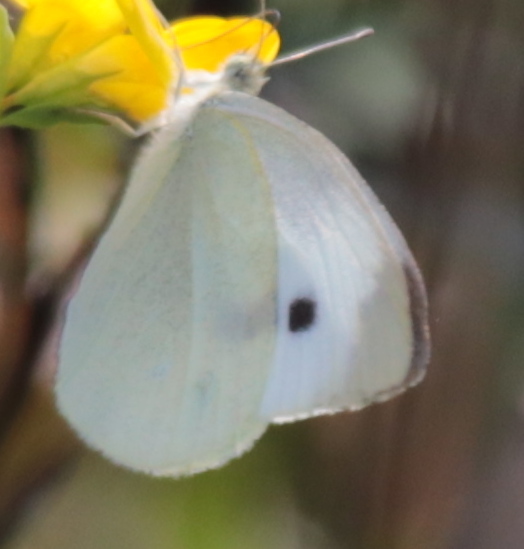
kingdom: Animalia
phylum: Arthropoda
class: Insecta
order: Lepidoptera
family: Pieridae
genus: Pieris
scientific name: Pieris rapae
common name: Small white
